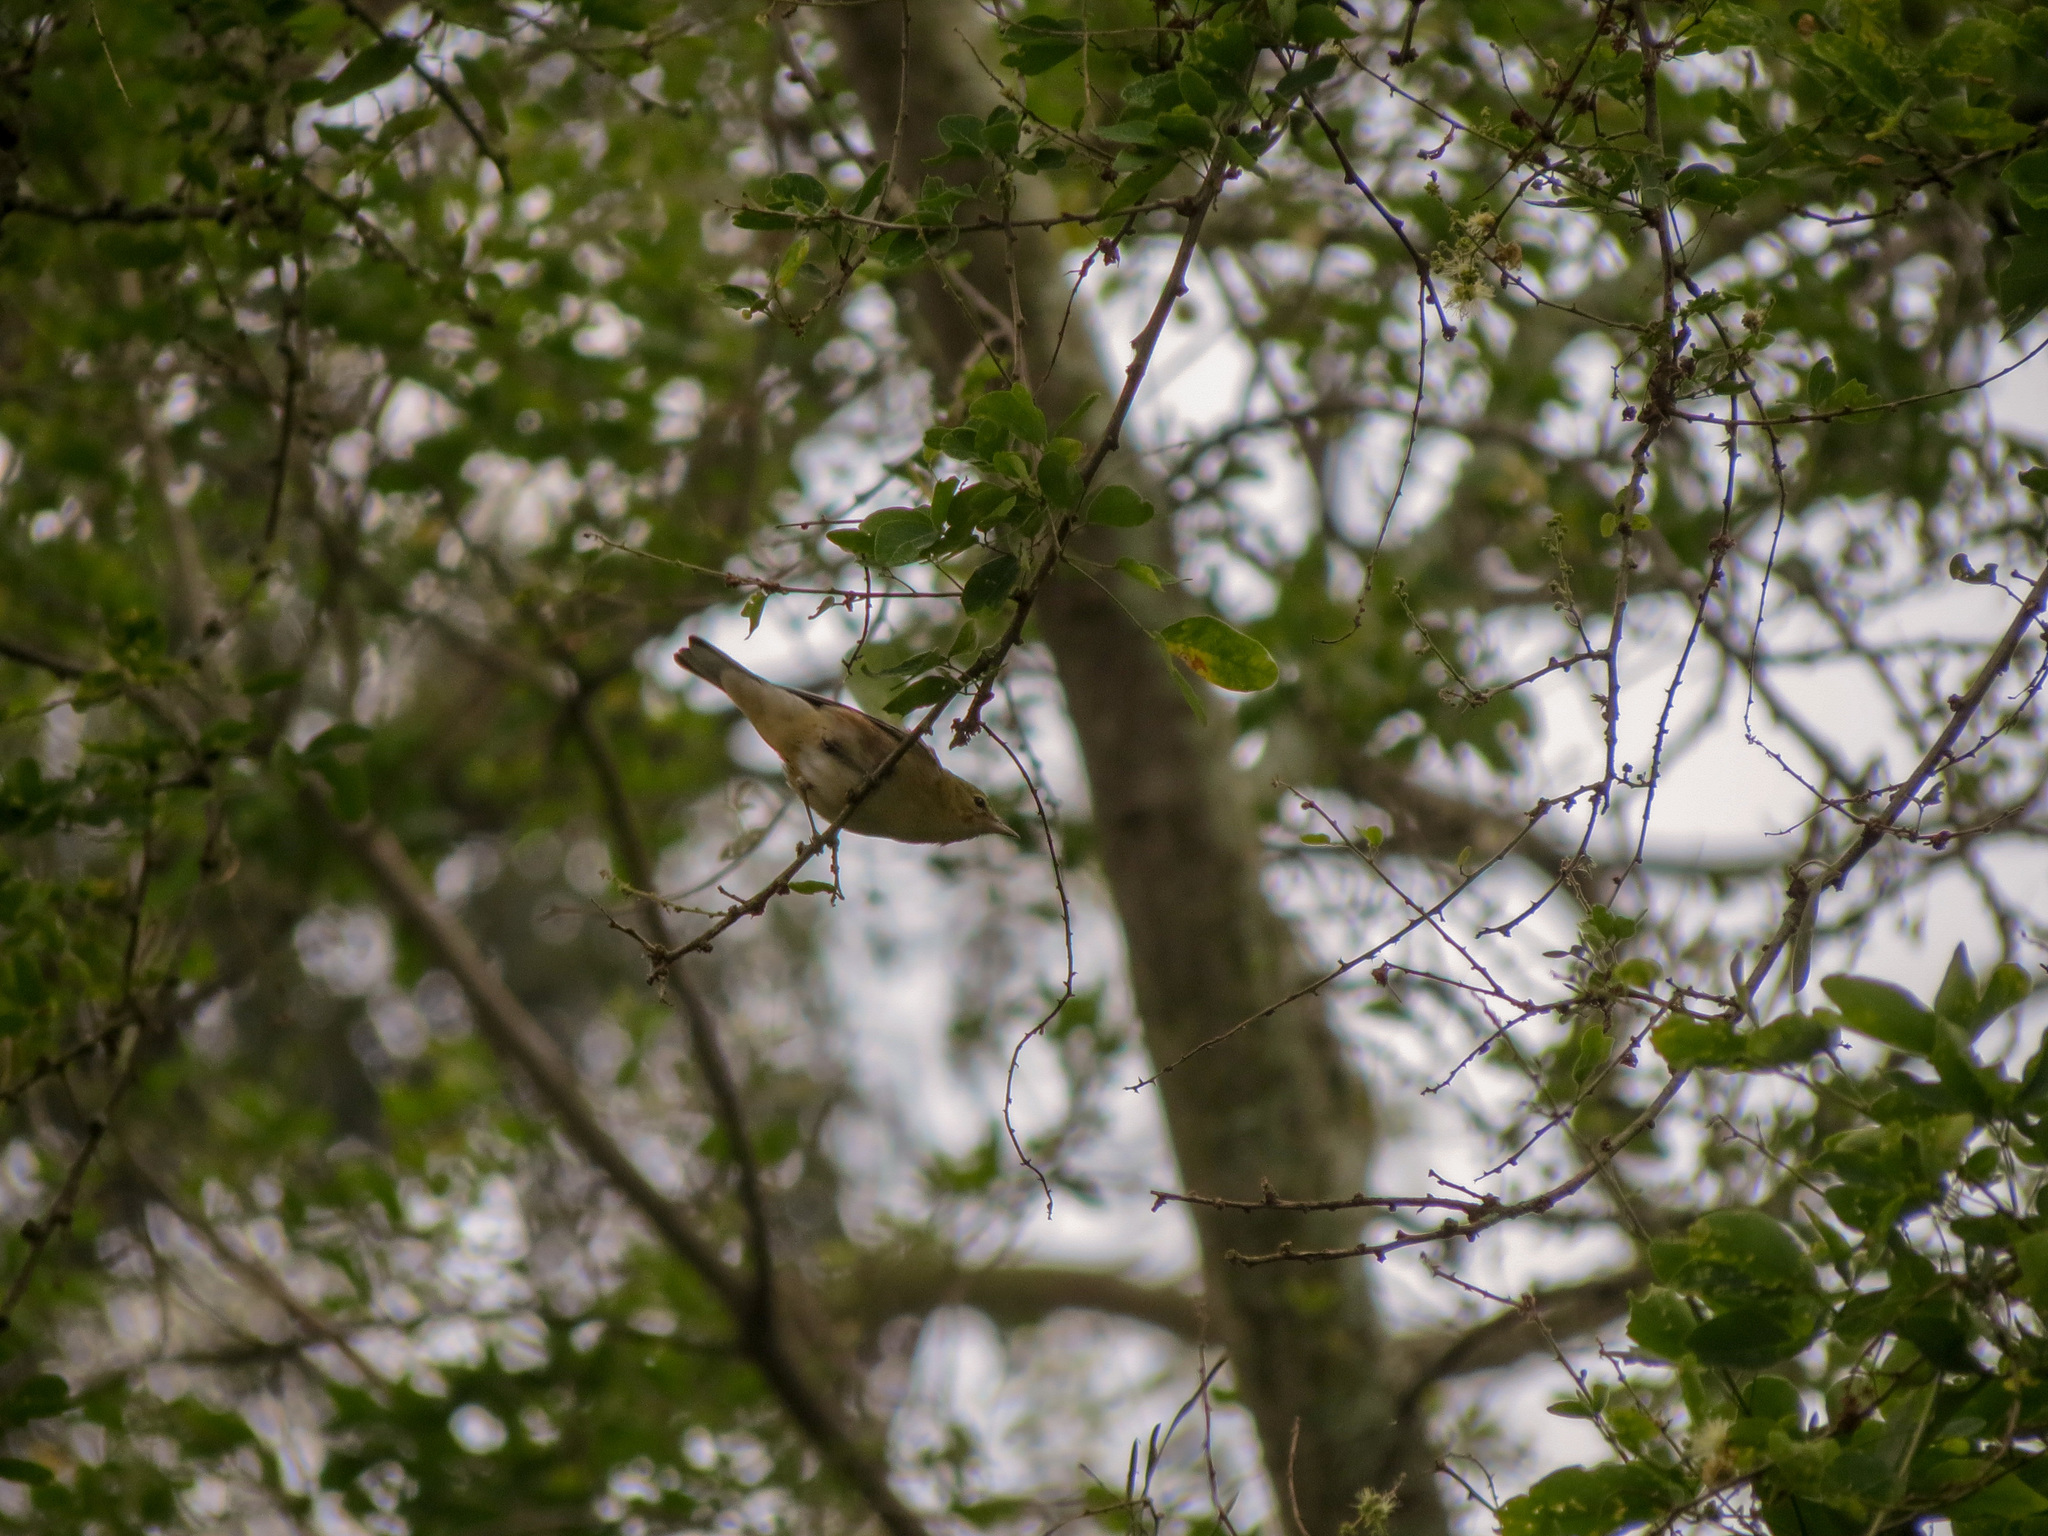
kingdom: Animalia
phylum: Chordata
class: Aves
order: Passeriformes
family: Parulidae
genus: Setophaga
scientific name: Setophaga castanea
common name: Bay-breasted warbler
